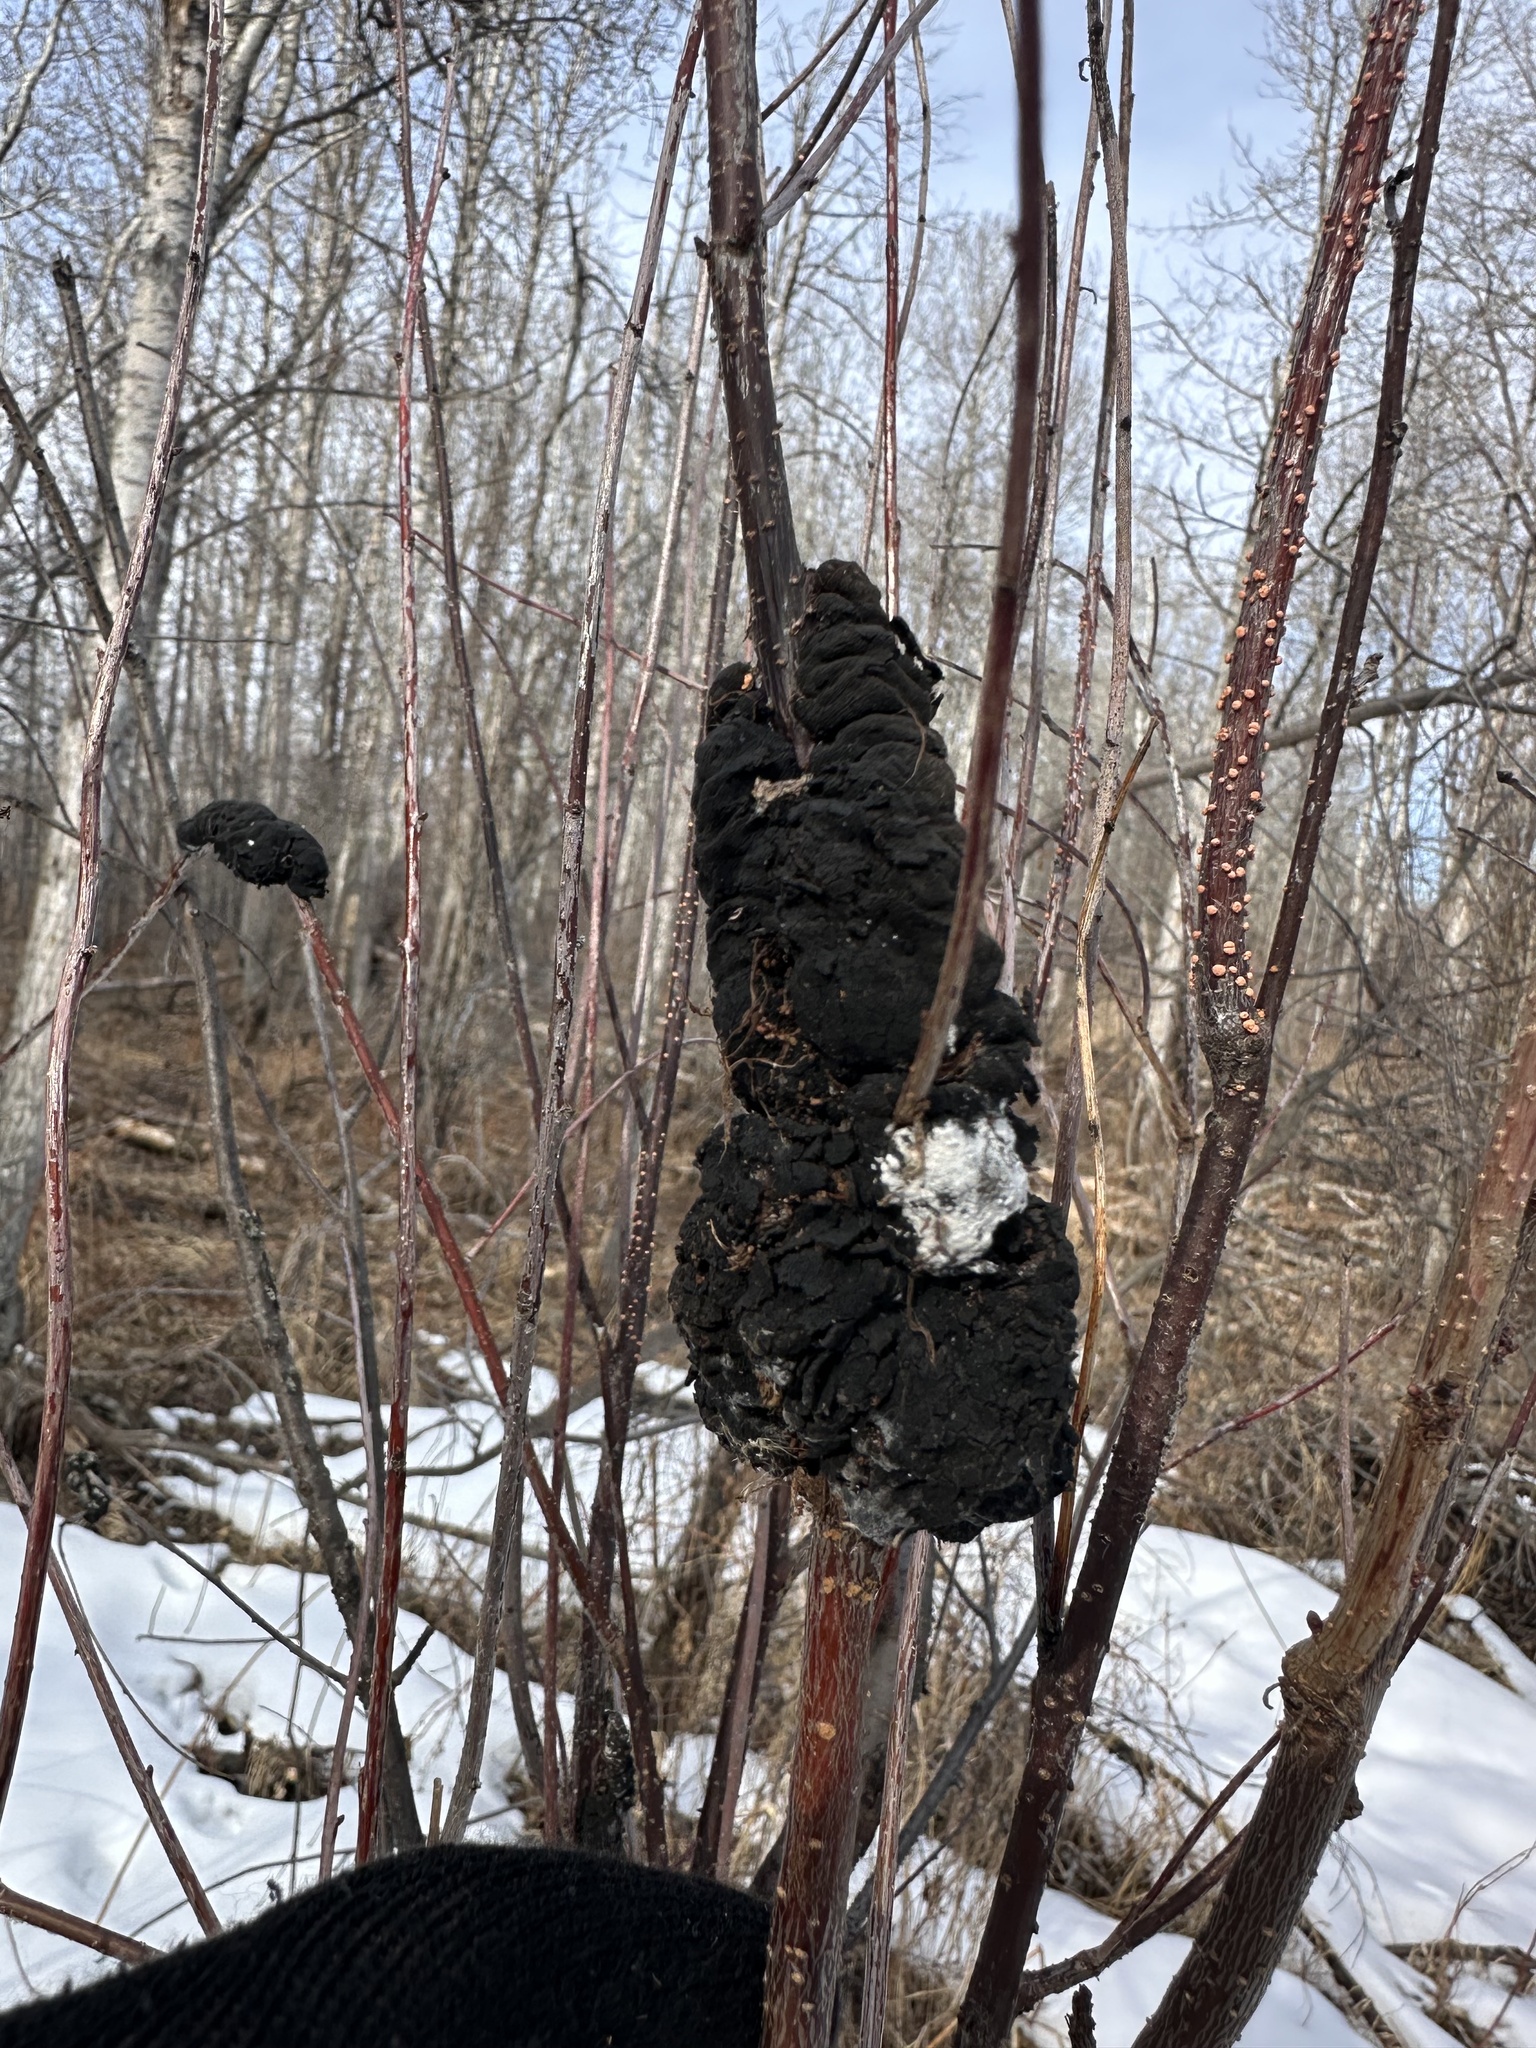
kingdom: Fungi
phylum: Ascomycota
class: Dothideomycetes
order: Venturiales
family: Venturiaceae
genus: Apiosporina
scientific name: Apiosporina morbosa
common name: Black knot
